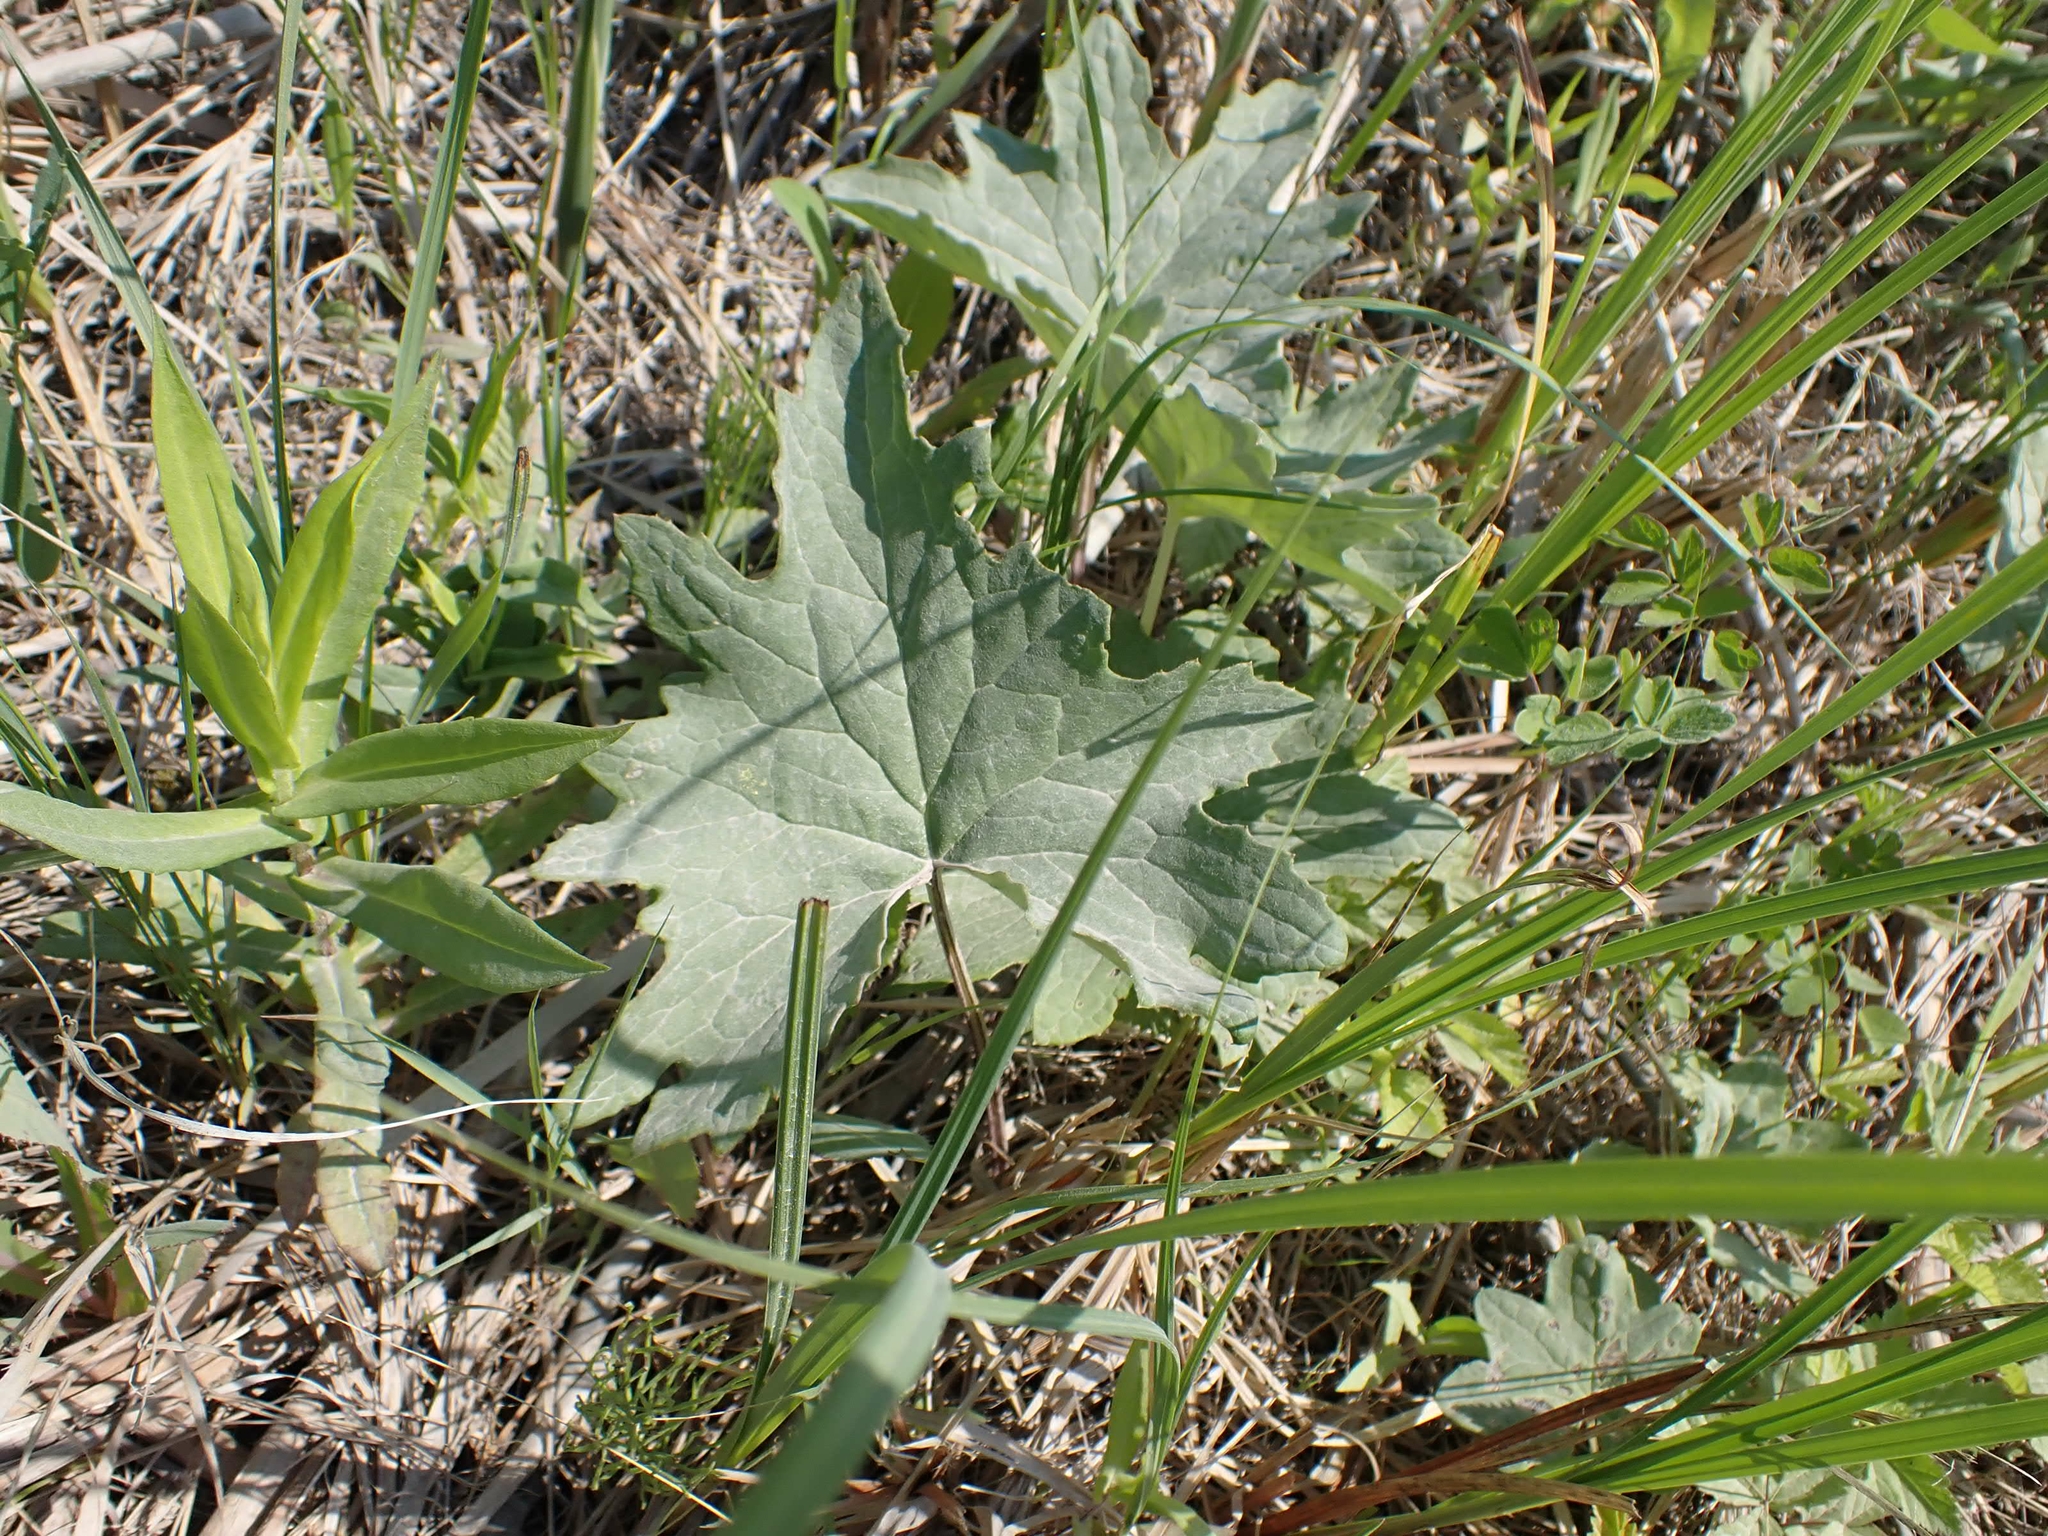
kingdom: Plantae
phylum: Tracheophyta
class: Magnoliopsida
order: Asterales
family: Asteraceae
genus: Petasites
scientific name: Petasites frigidus
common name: Arctic butterbur
